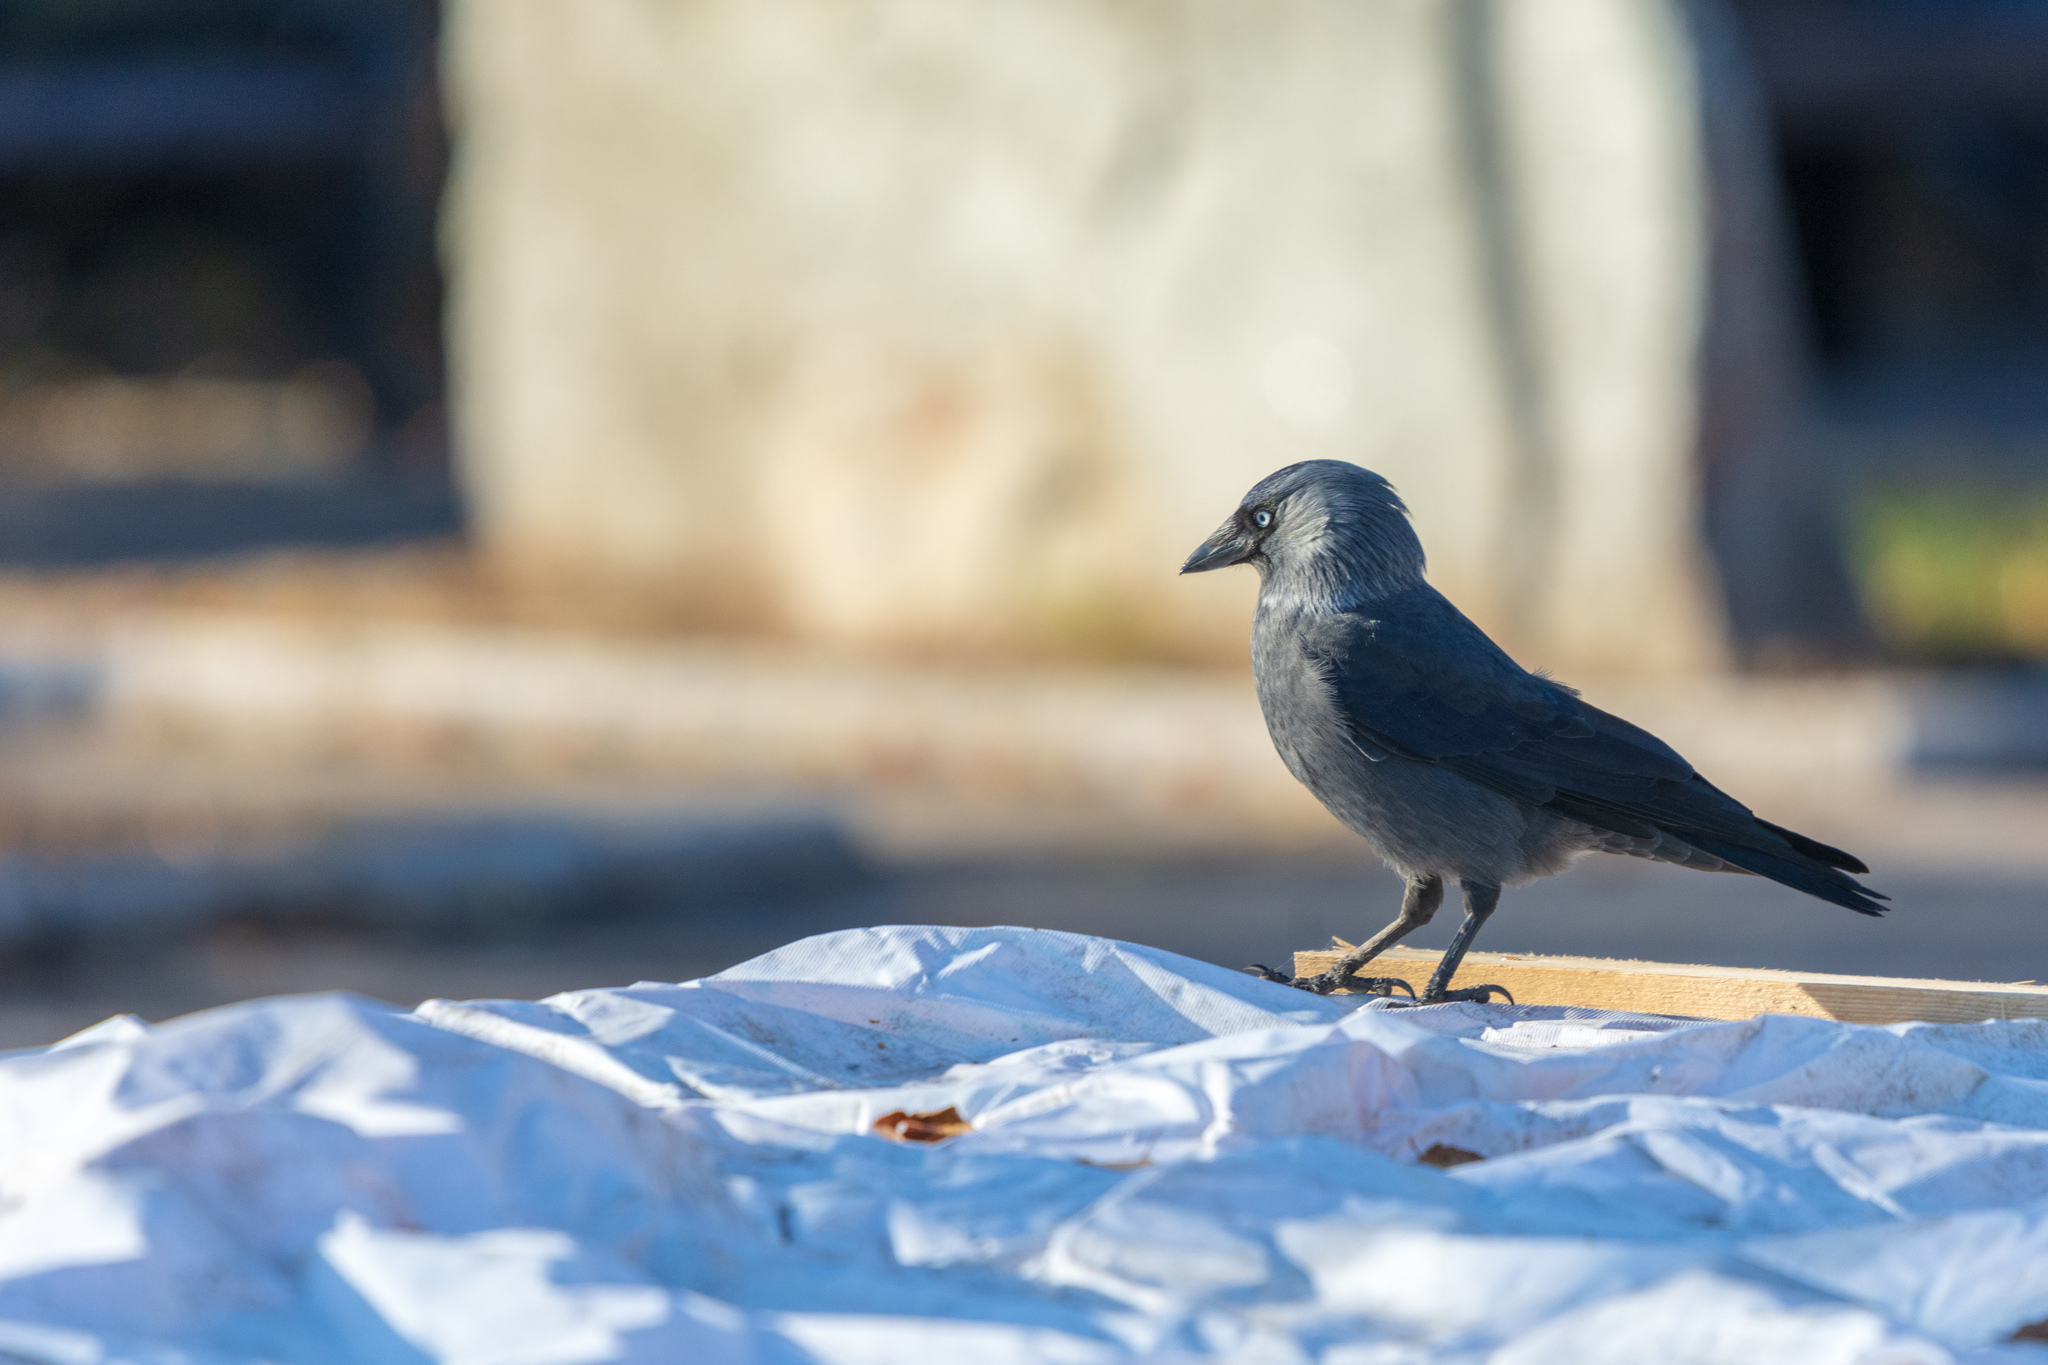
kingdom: Animalia
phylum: Chordata
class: Aves
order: Passeriformes
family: Corvidae
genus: Coloeus
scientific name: Coloeus monedula
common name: Western jackdaw
